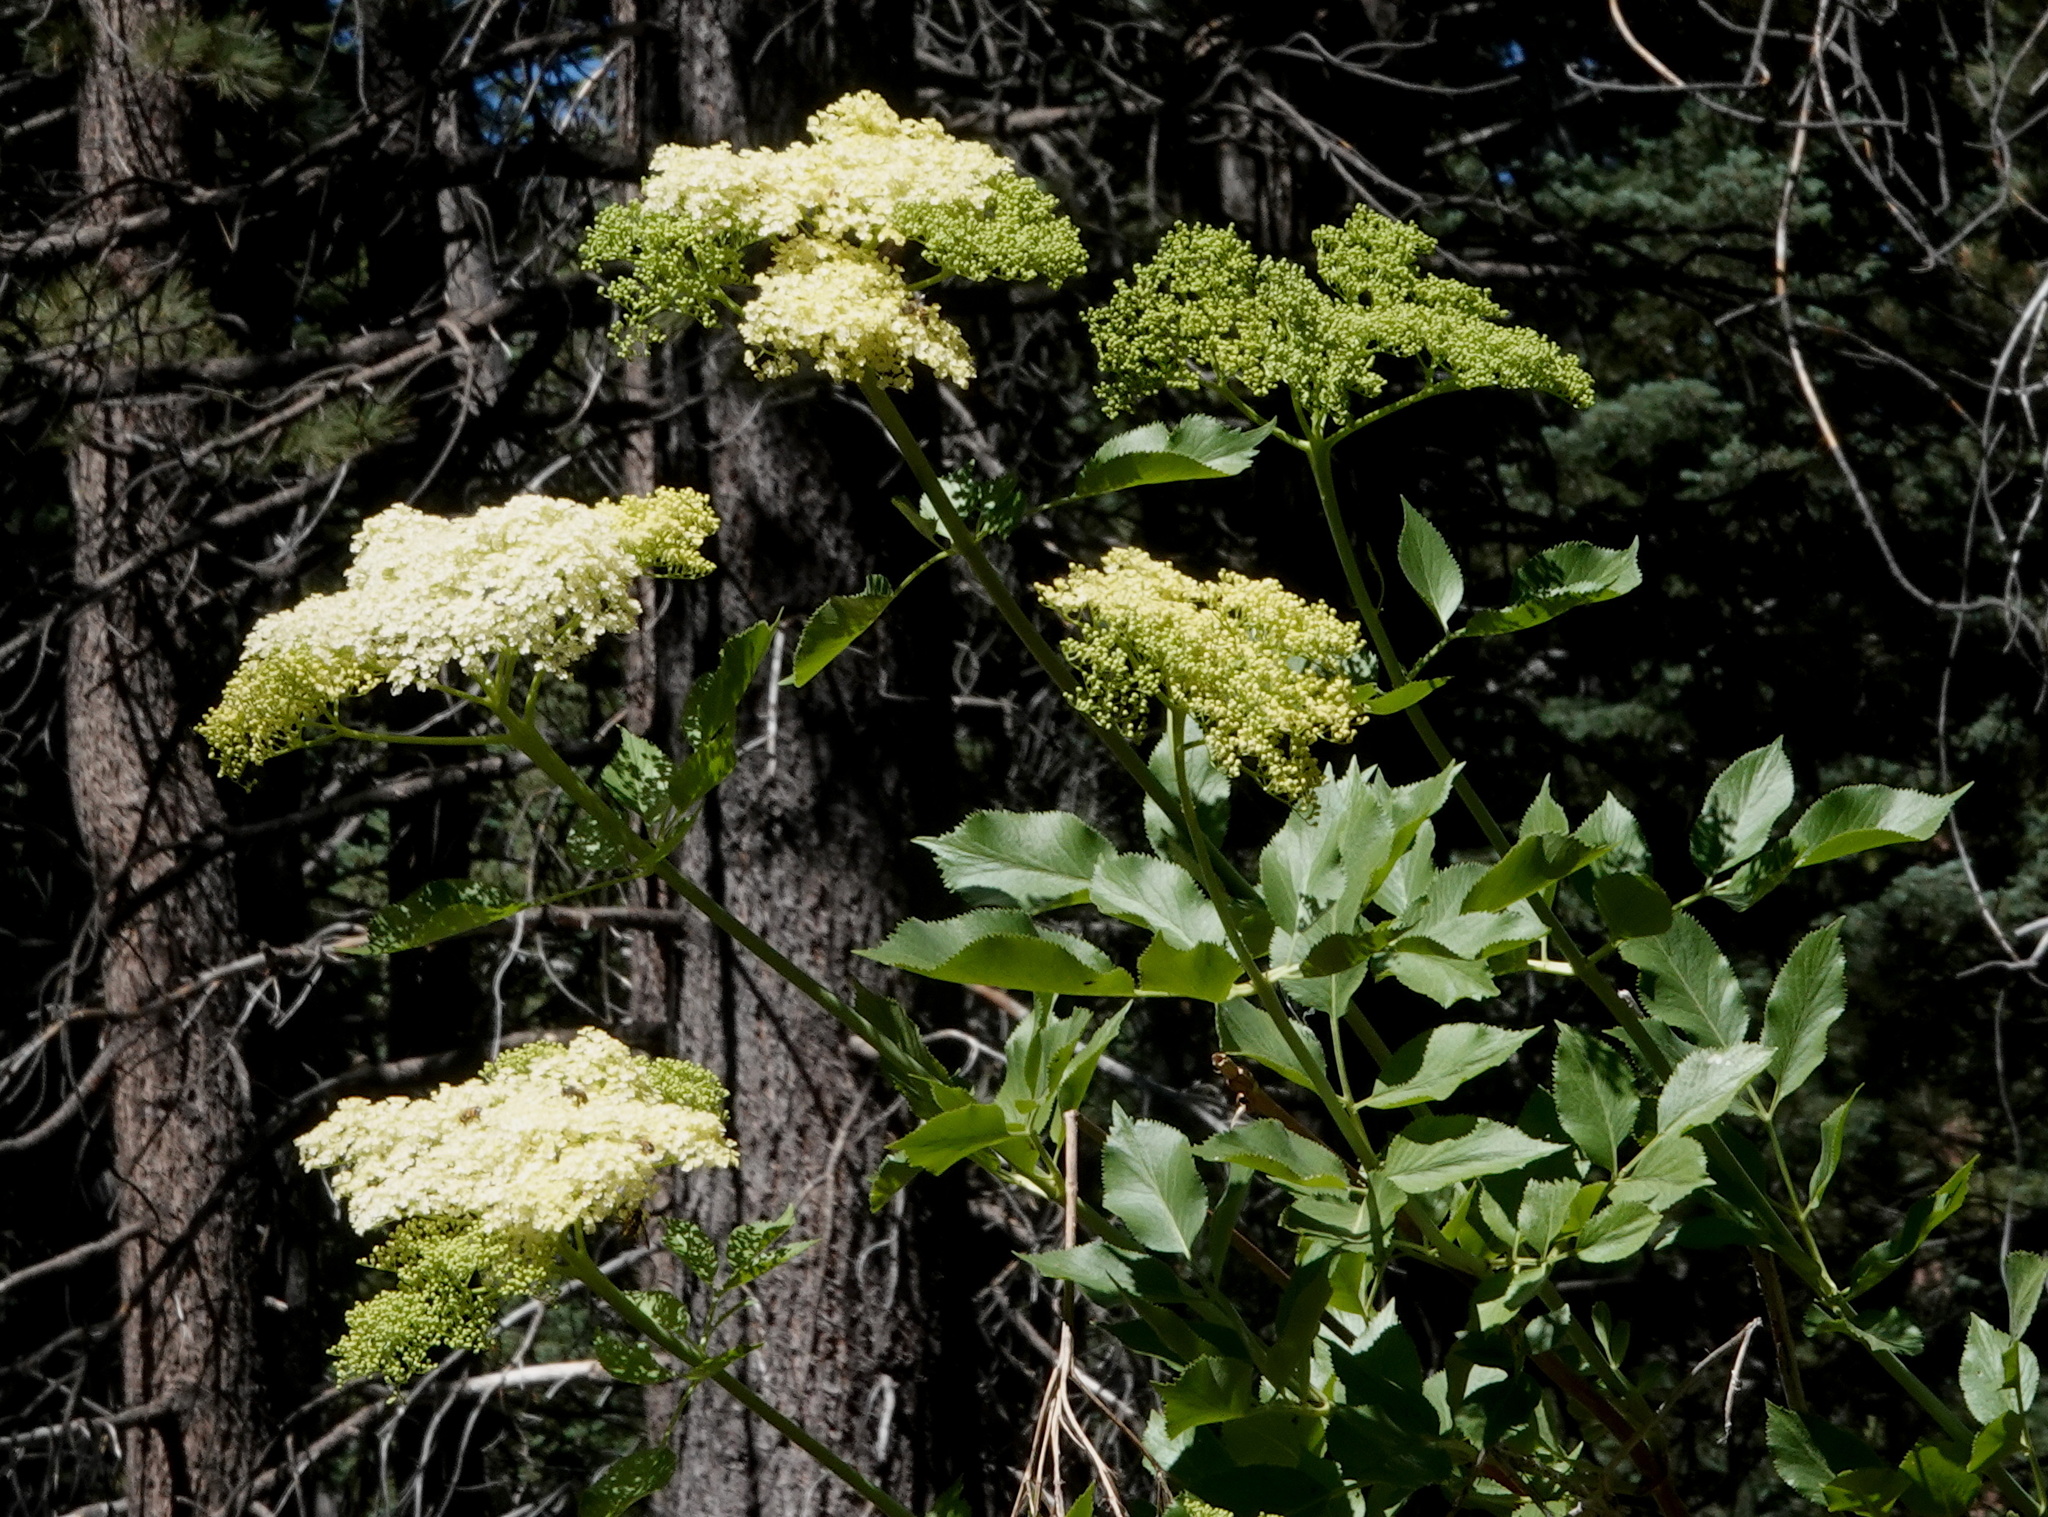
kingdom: Plantae
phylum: Tracheophyta
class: Magnoliopsida
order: Dipsacales
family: Viburnaceae
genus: Sambucus
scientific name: Sambucus cerulea
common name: Blue elder
